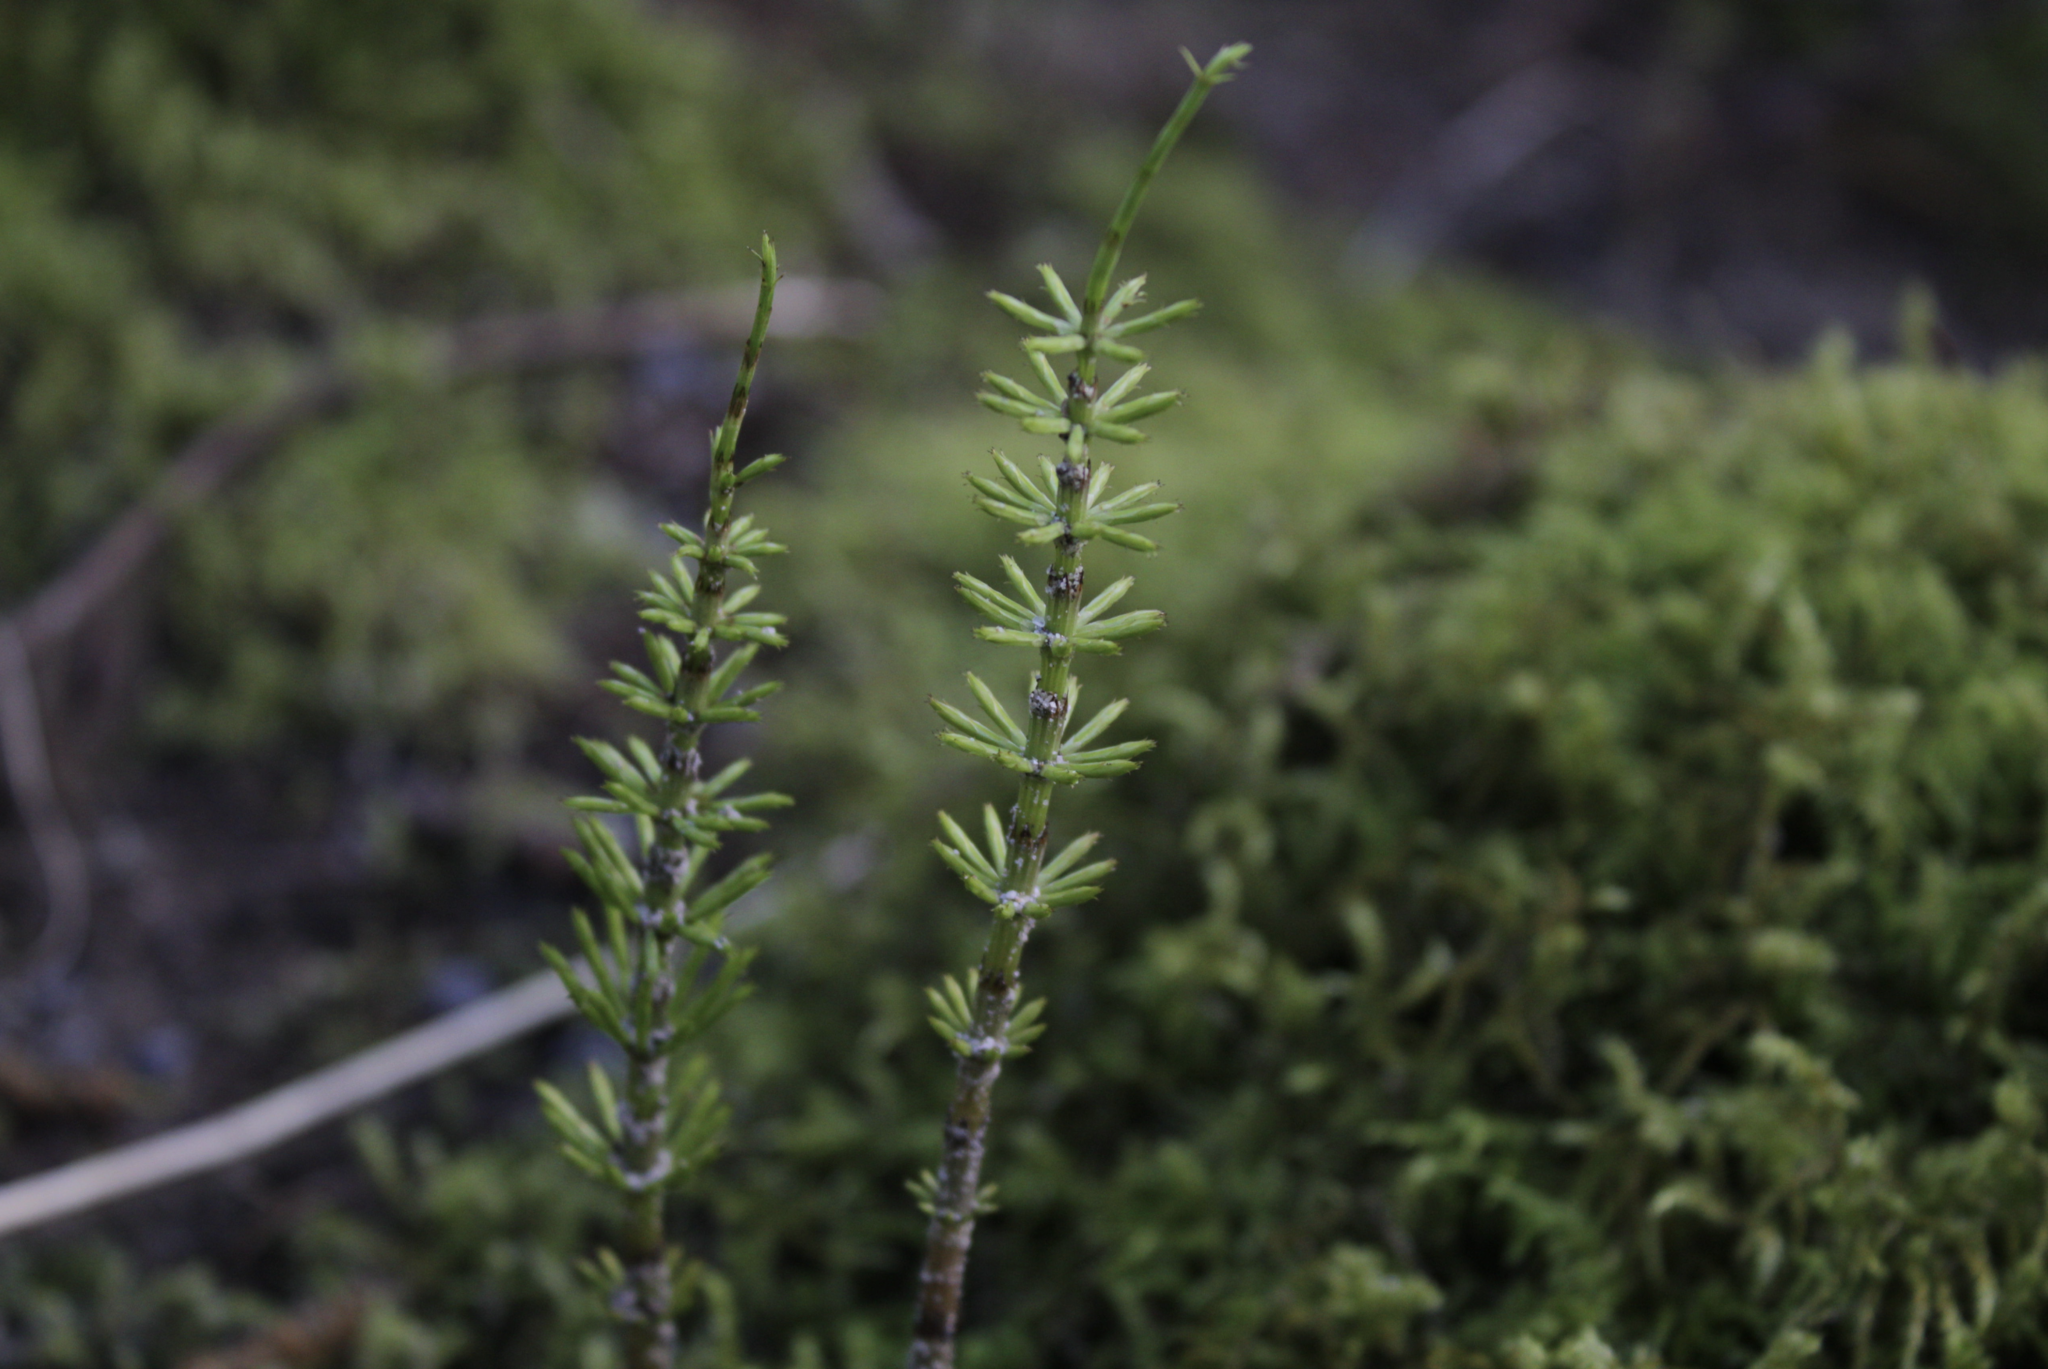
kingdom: Plantae
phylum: Tracheophyta
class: Polypodiopsida
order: Equisetales
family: Equisetaceae
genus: Equisetum
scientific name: Equisetum arvense
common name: Field horsetail
